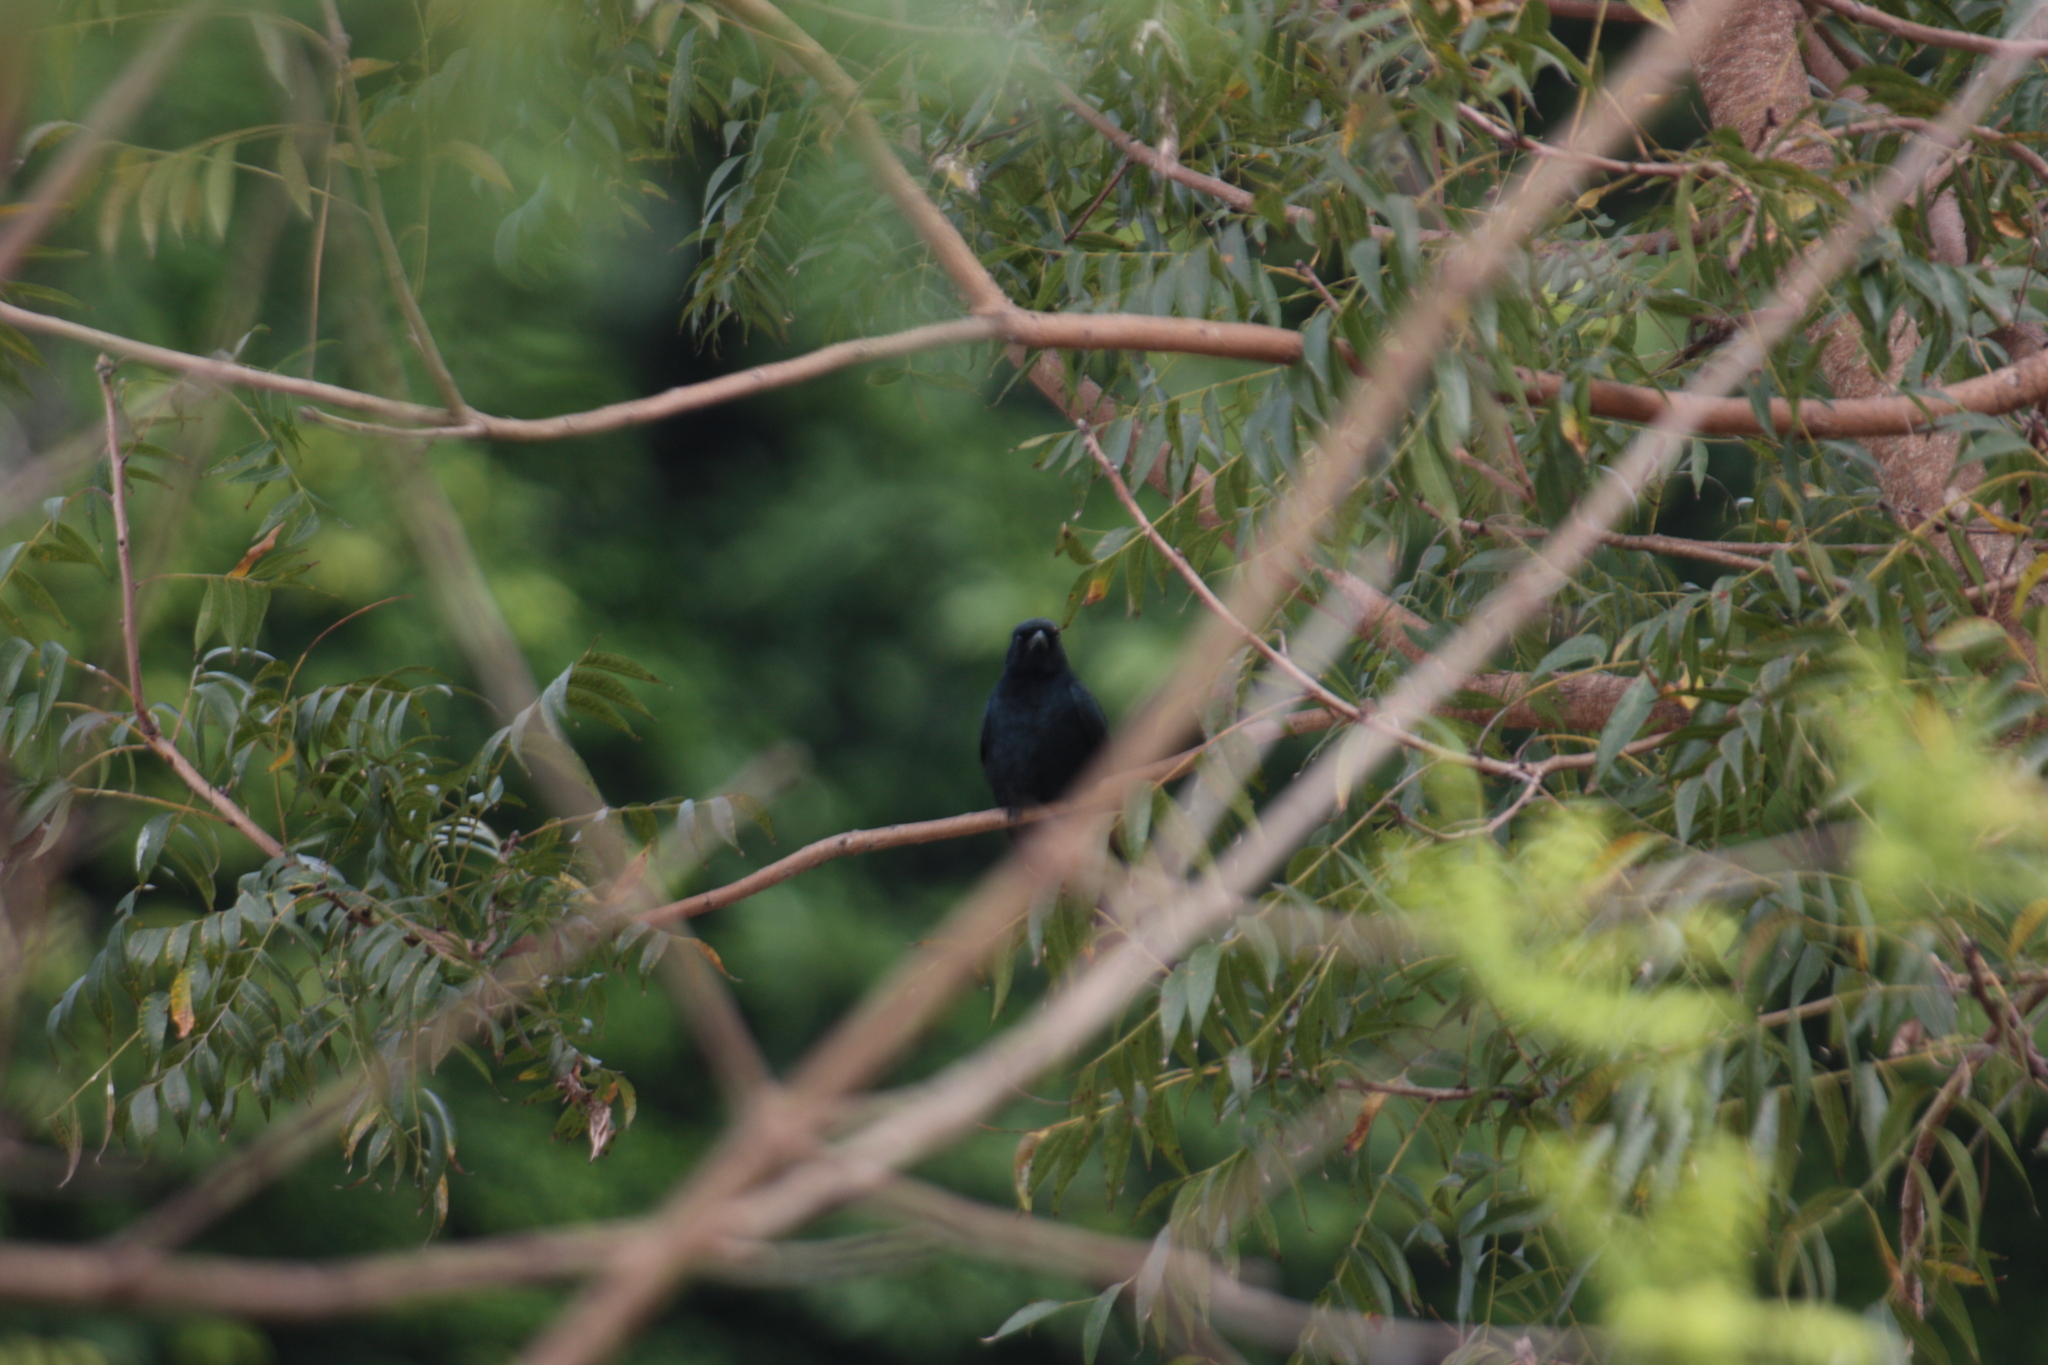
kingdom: Animalia
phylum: Chordata
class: Aves
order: Passeriformes
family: Dicruridae
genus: Dicrurus
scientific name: Dicrurus macrocercus
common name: Black drongo
